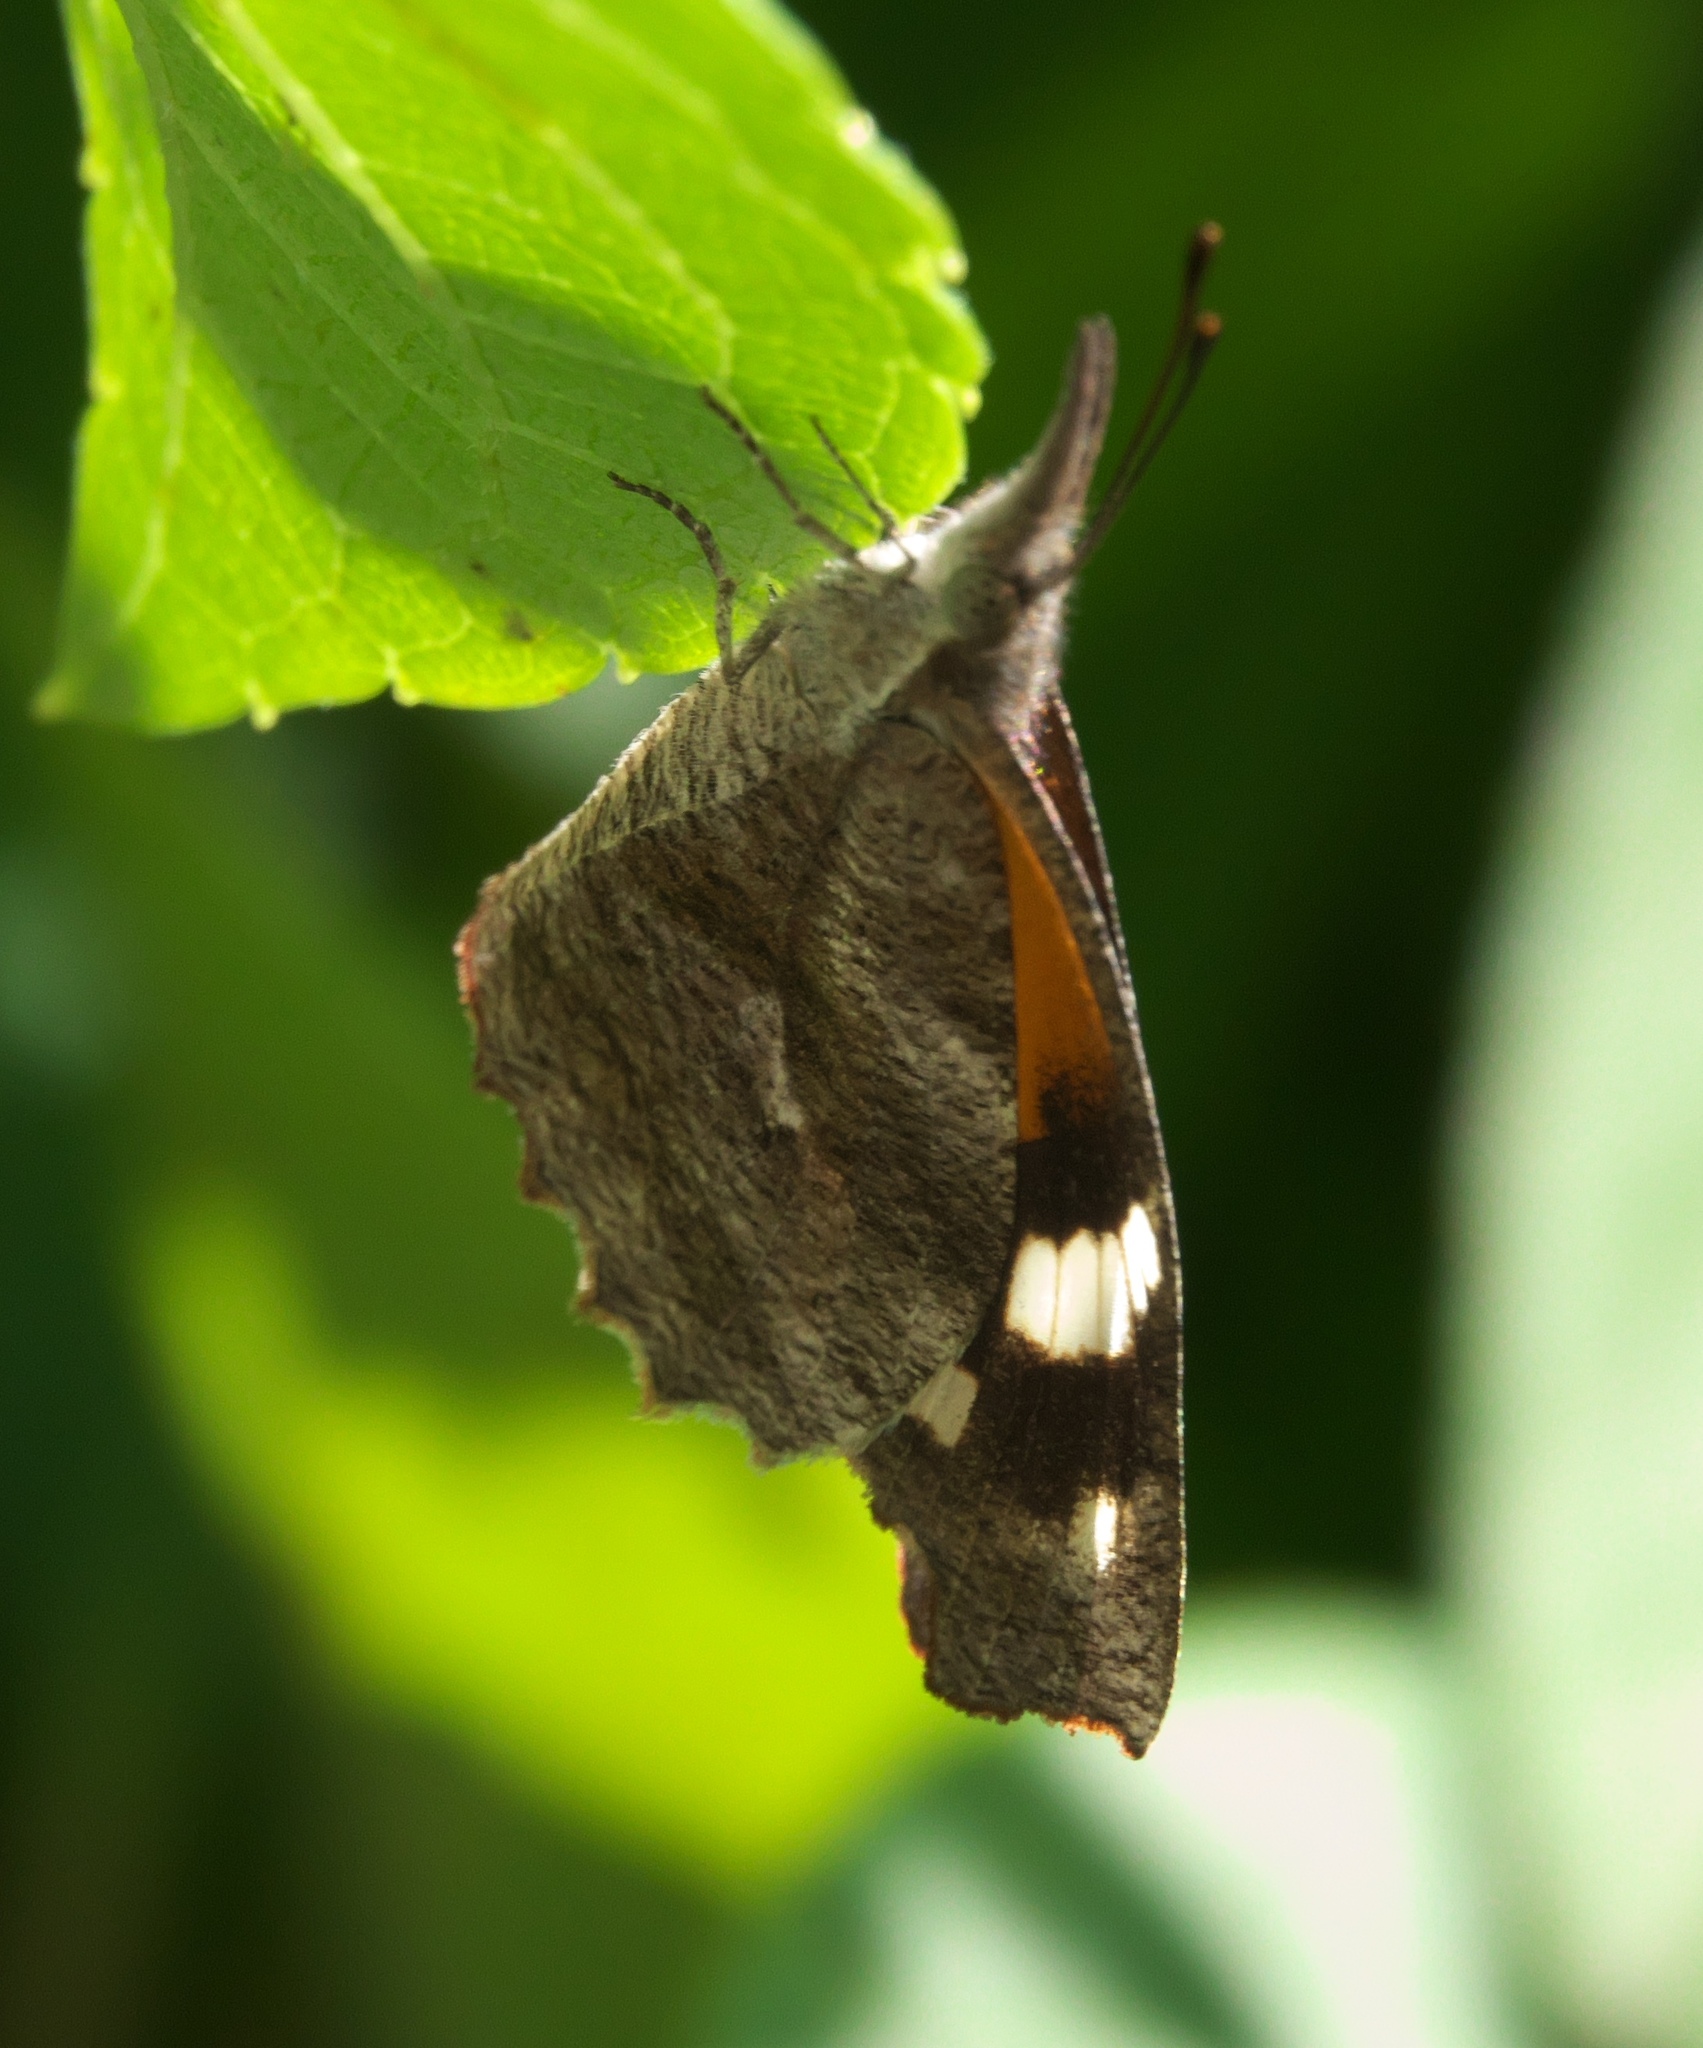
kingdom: Animalia
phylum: Arthropoda
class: Insecta
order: Lepidoptera
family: Nymphalidae
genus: Libytheana
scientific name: Libytheana carinenta
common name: American snout
